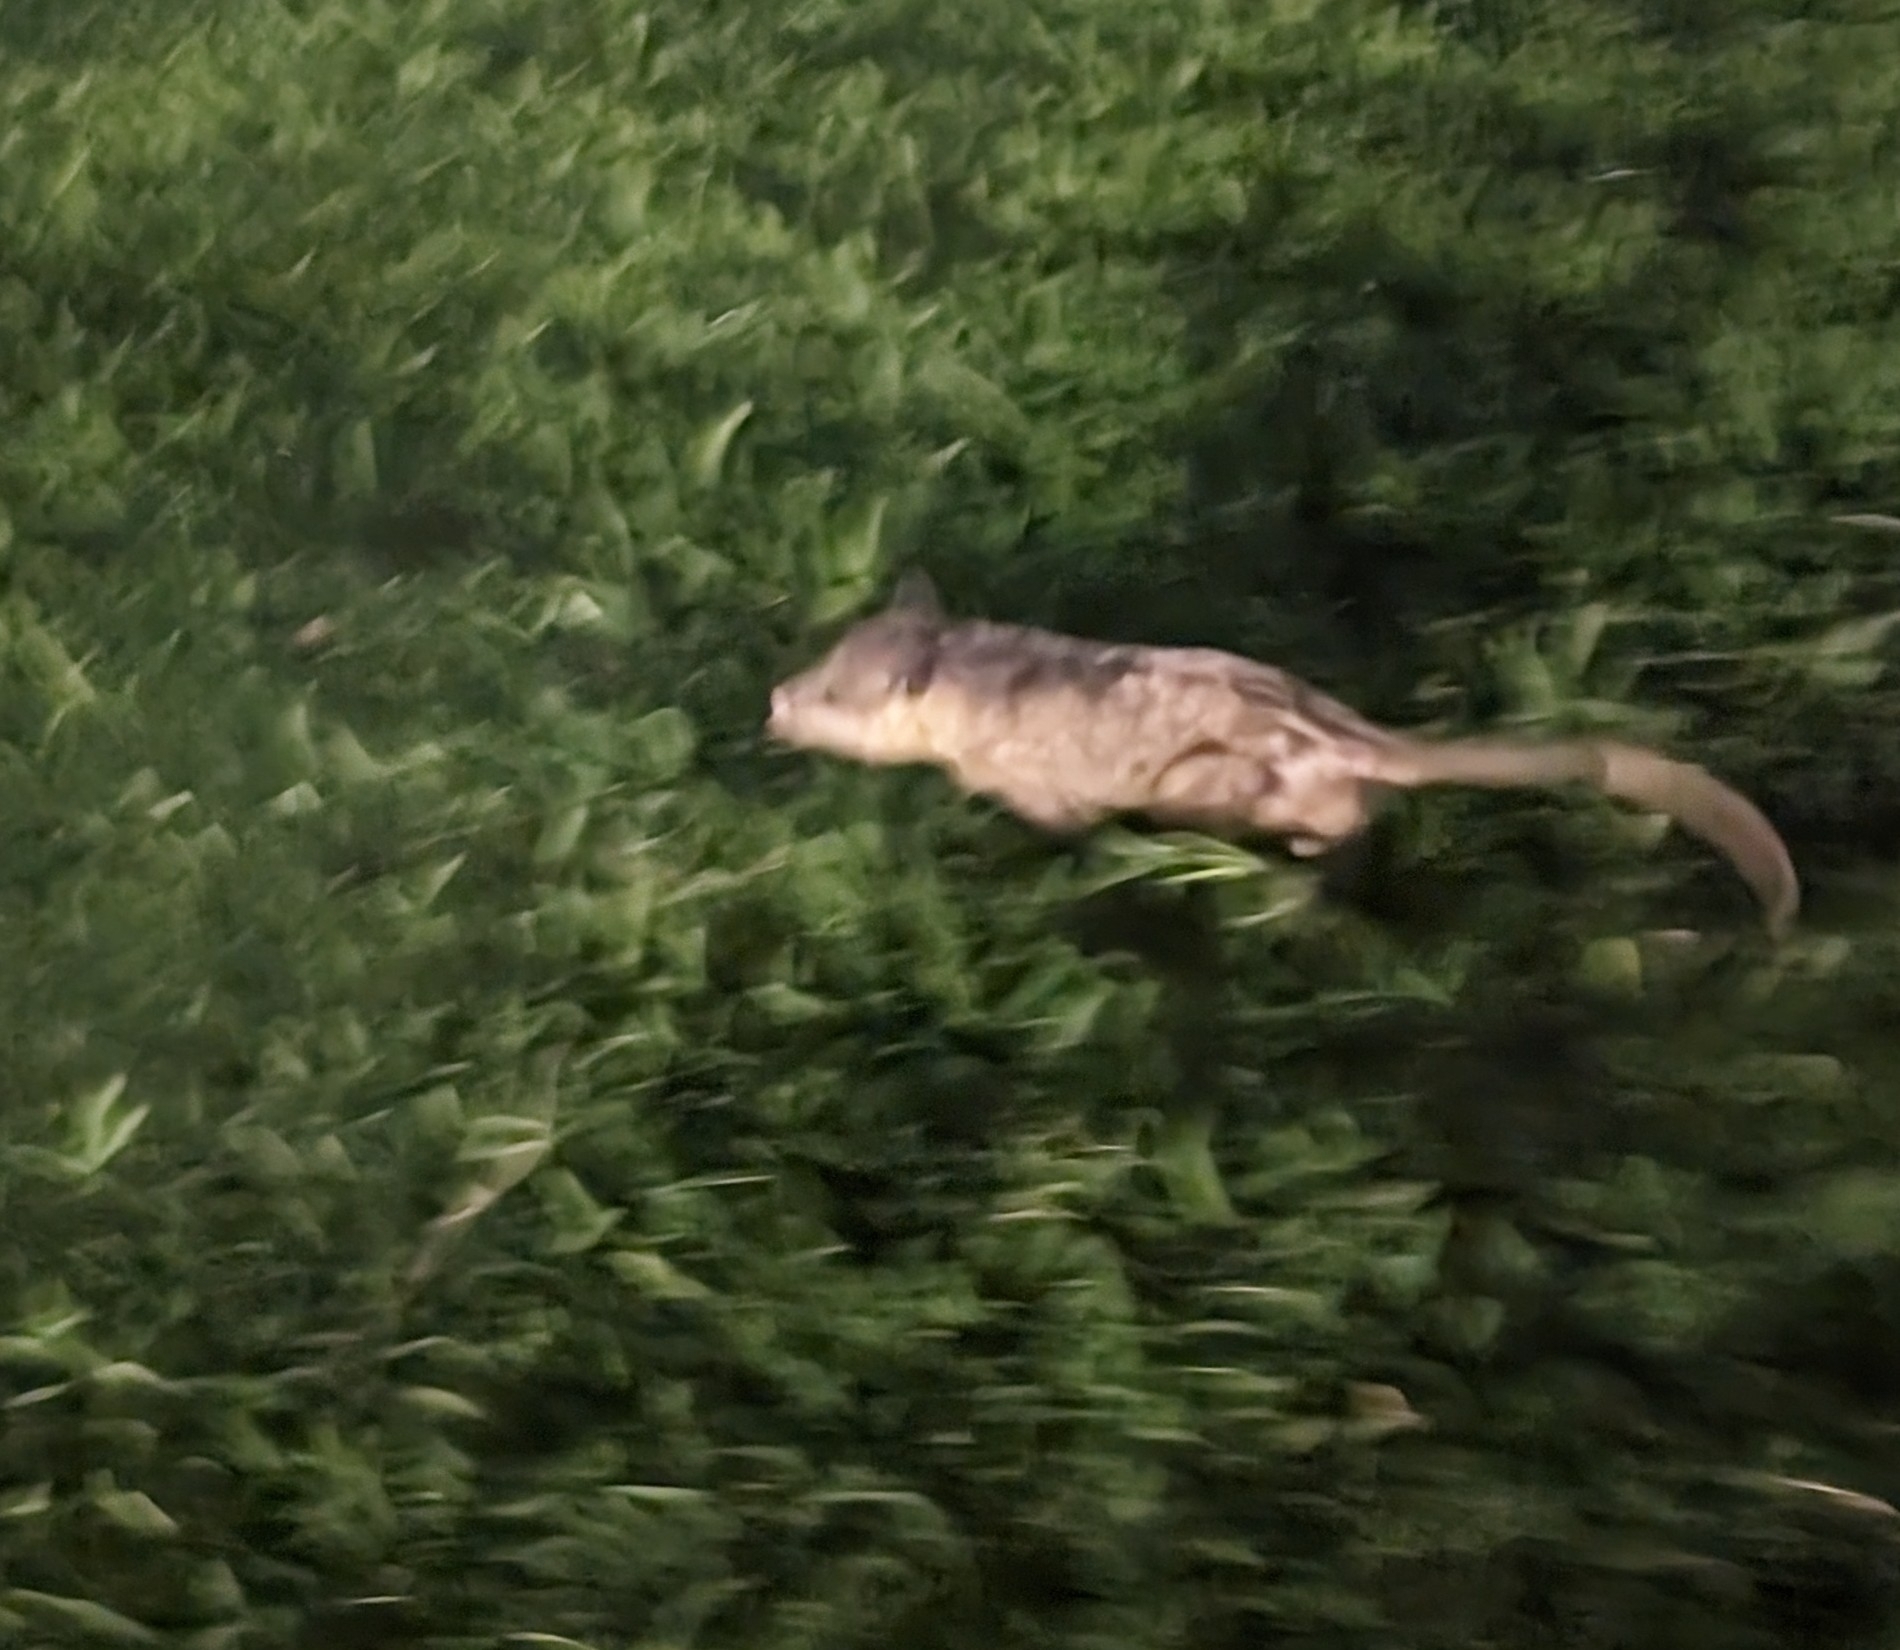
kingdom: Animalia
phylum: Chordata
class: Mammalia
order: Didelphimorphia
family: Didelphidae
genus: Didelphis
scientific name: Didelphis
